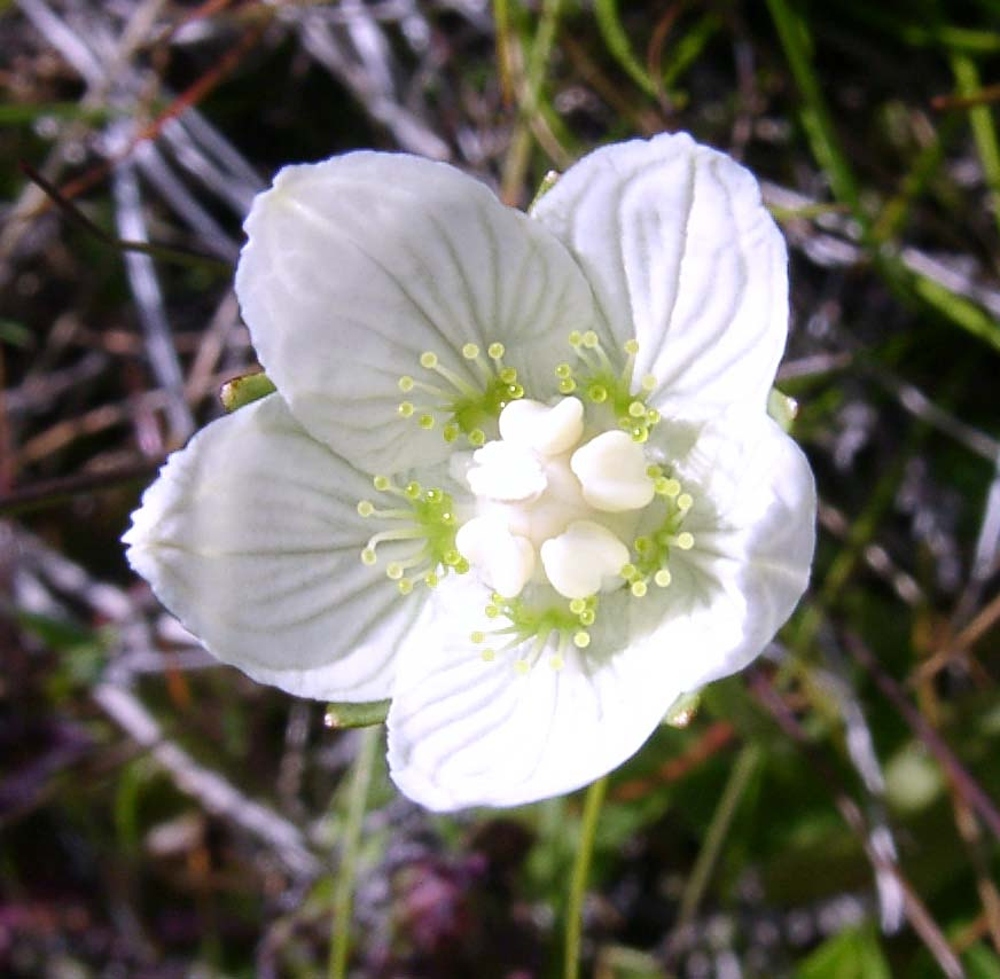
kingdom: Plantae
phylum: Tracheophyta
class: Magnoliopsida
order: Celastrales
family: Parnassiaceae
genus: Parnassia
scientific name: Parnassia palustris
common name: Grass-of-parnassus
